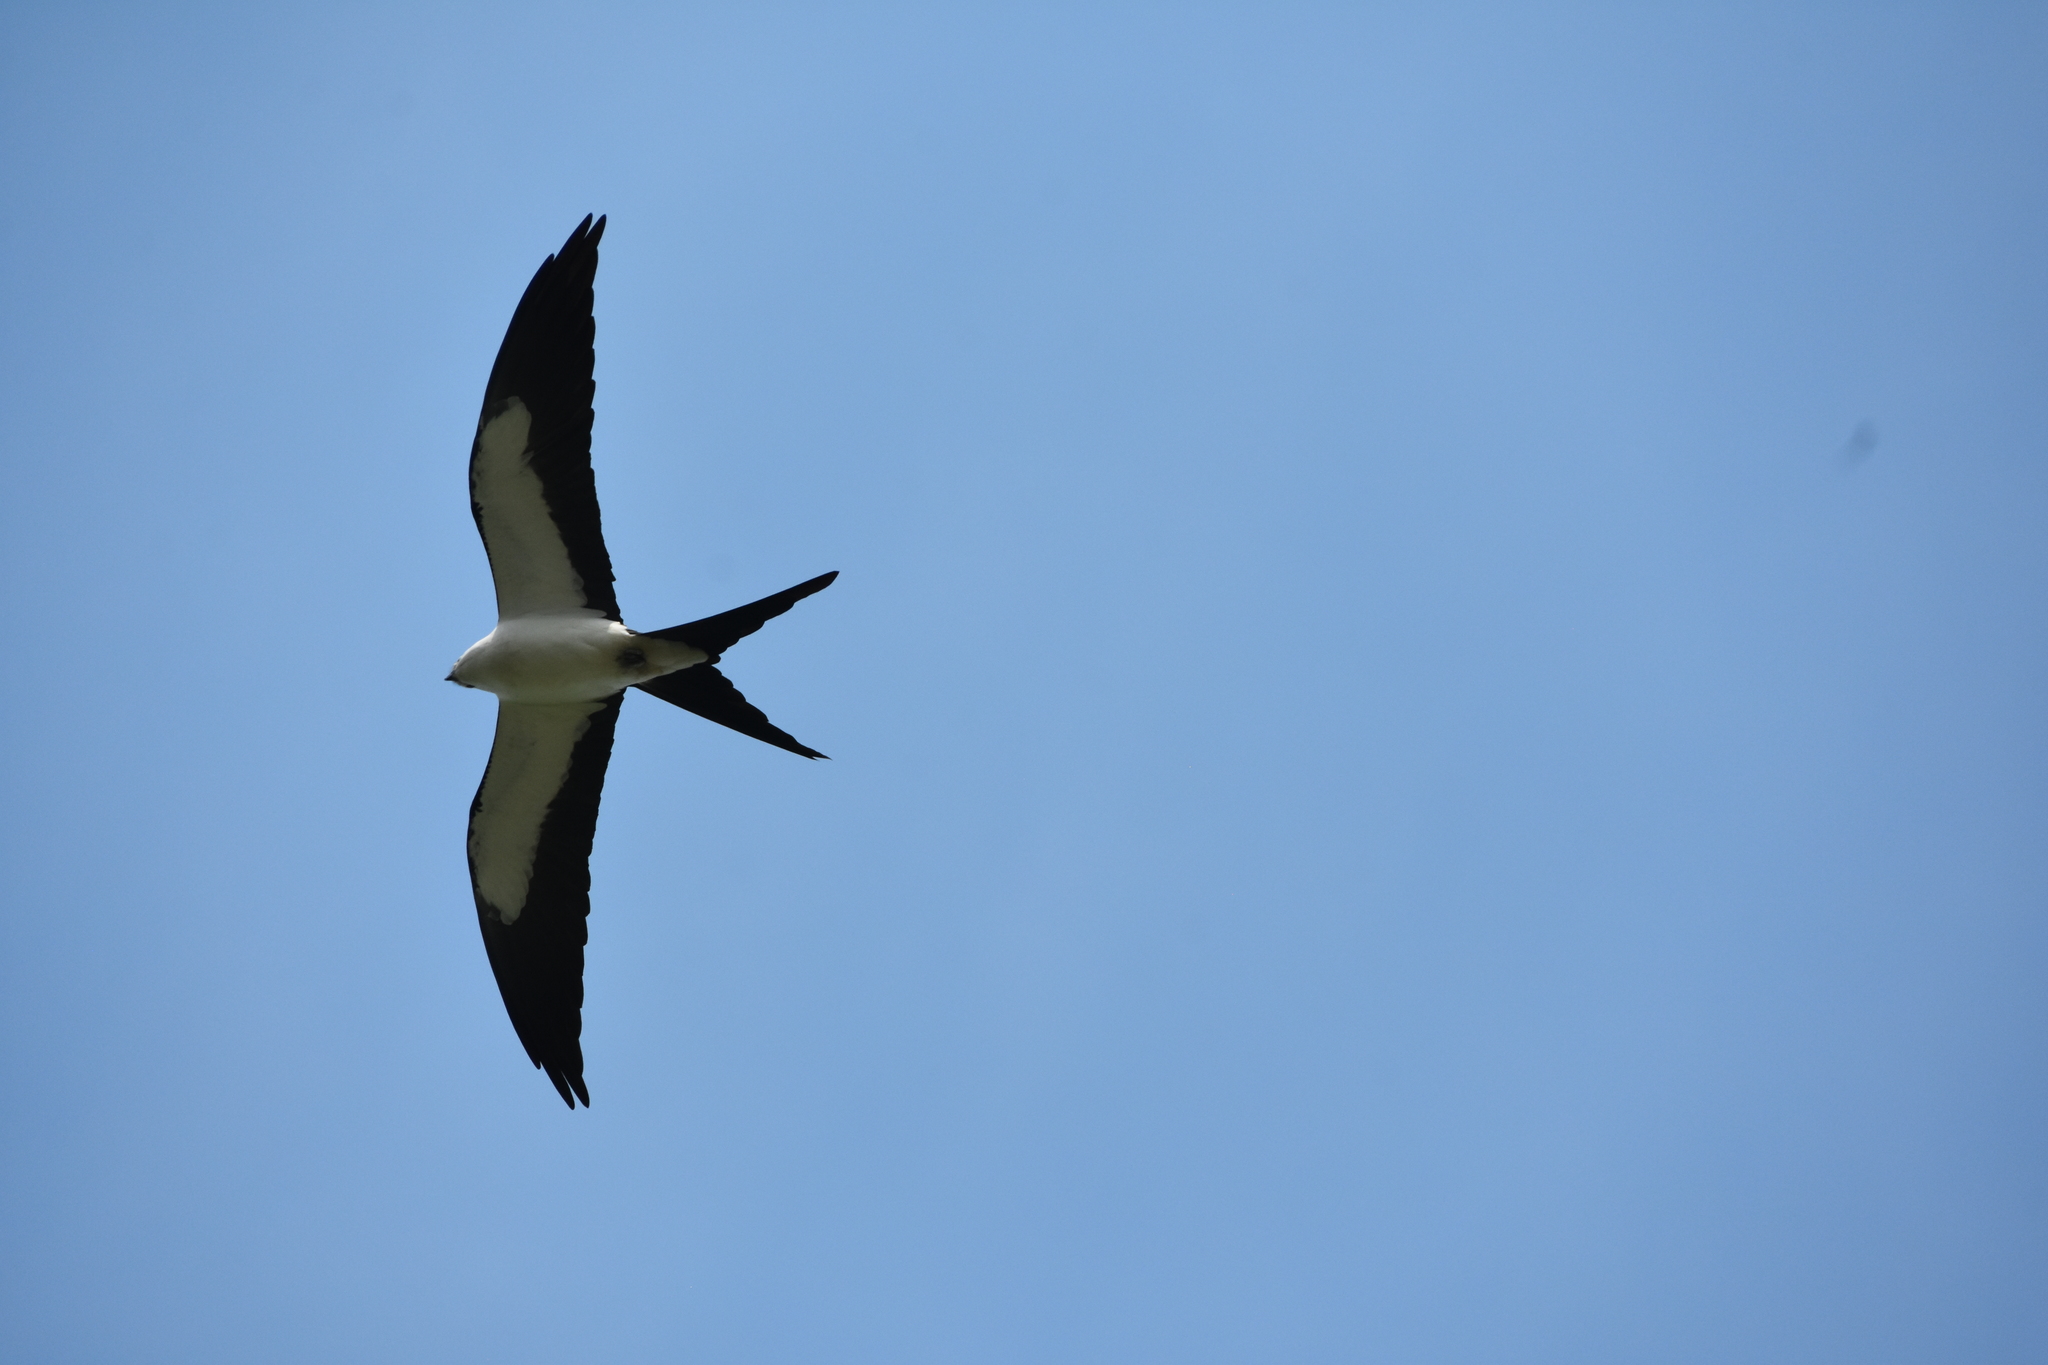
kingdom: Animalia
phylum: Chordata
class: Aves
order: Accipitriformes
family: Accipitridae
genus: Elanoides
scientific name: Elanoides forficatus
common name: Swallow-tailed kite
